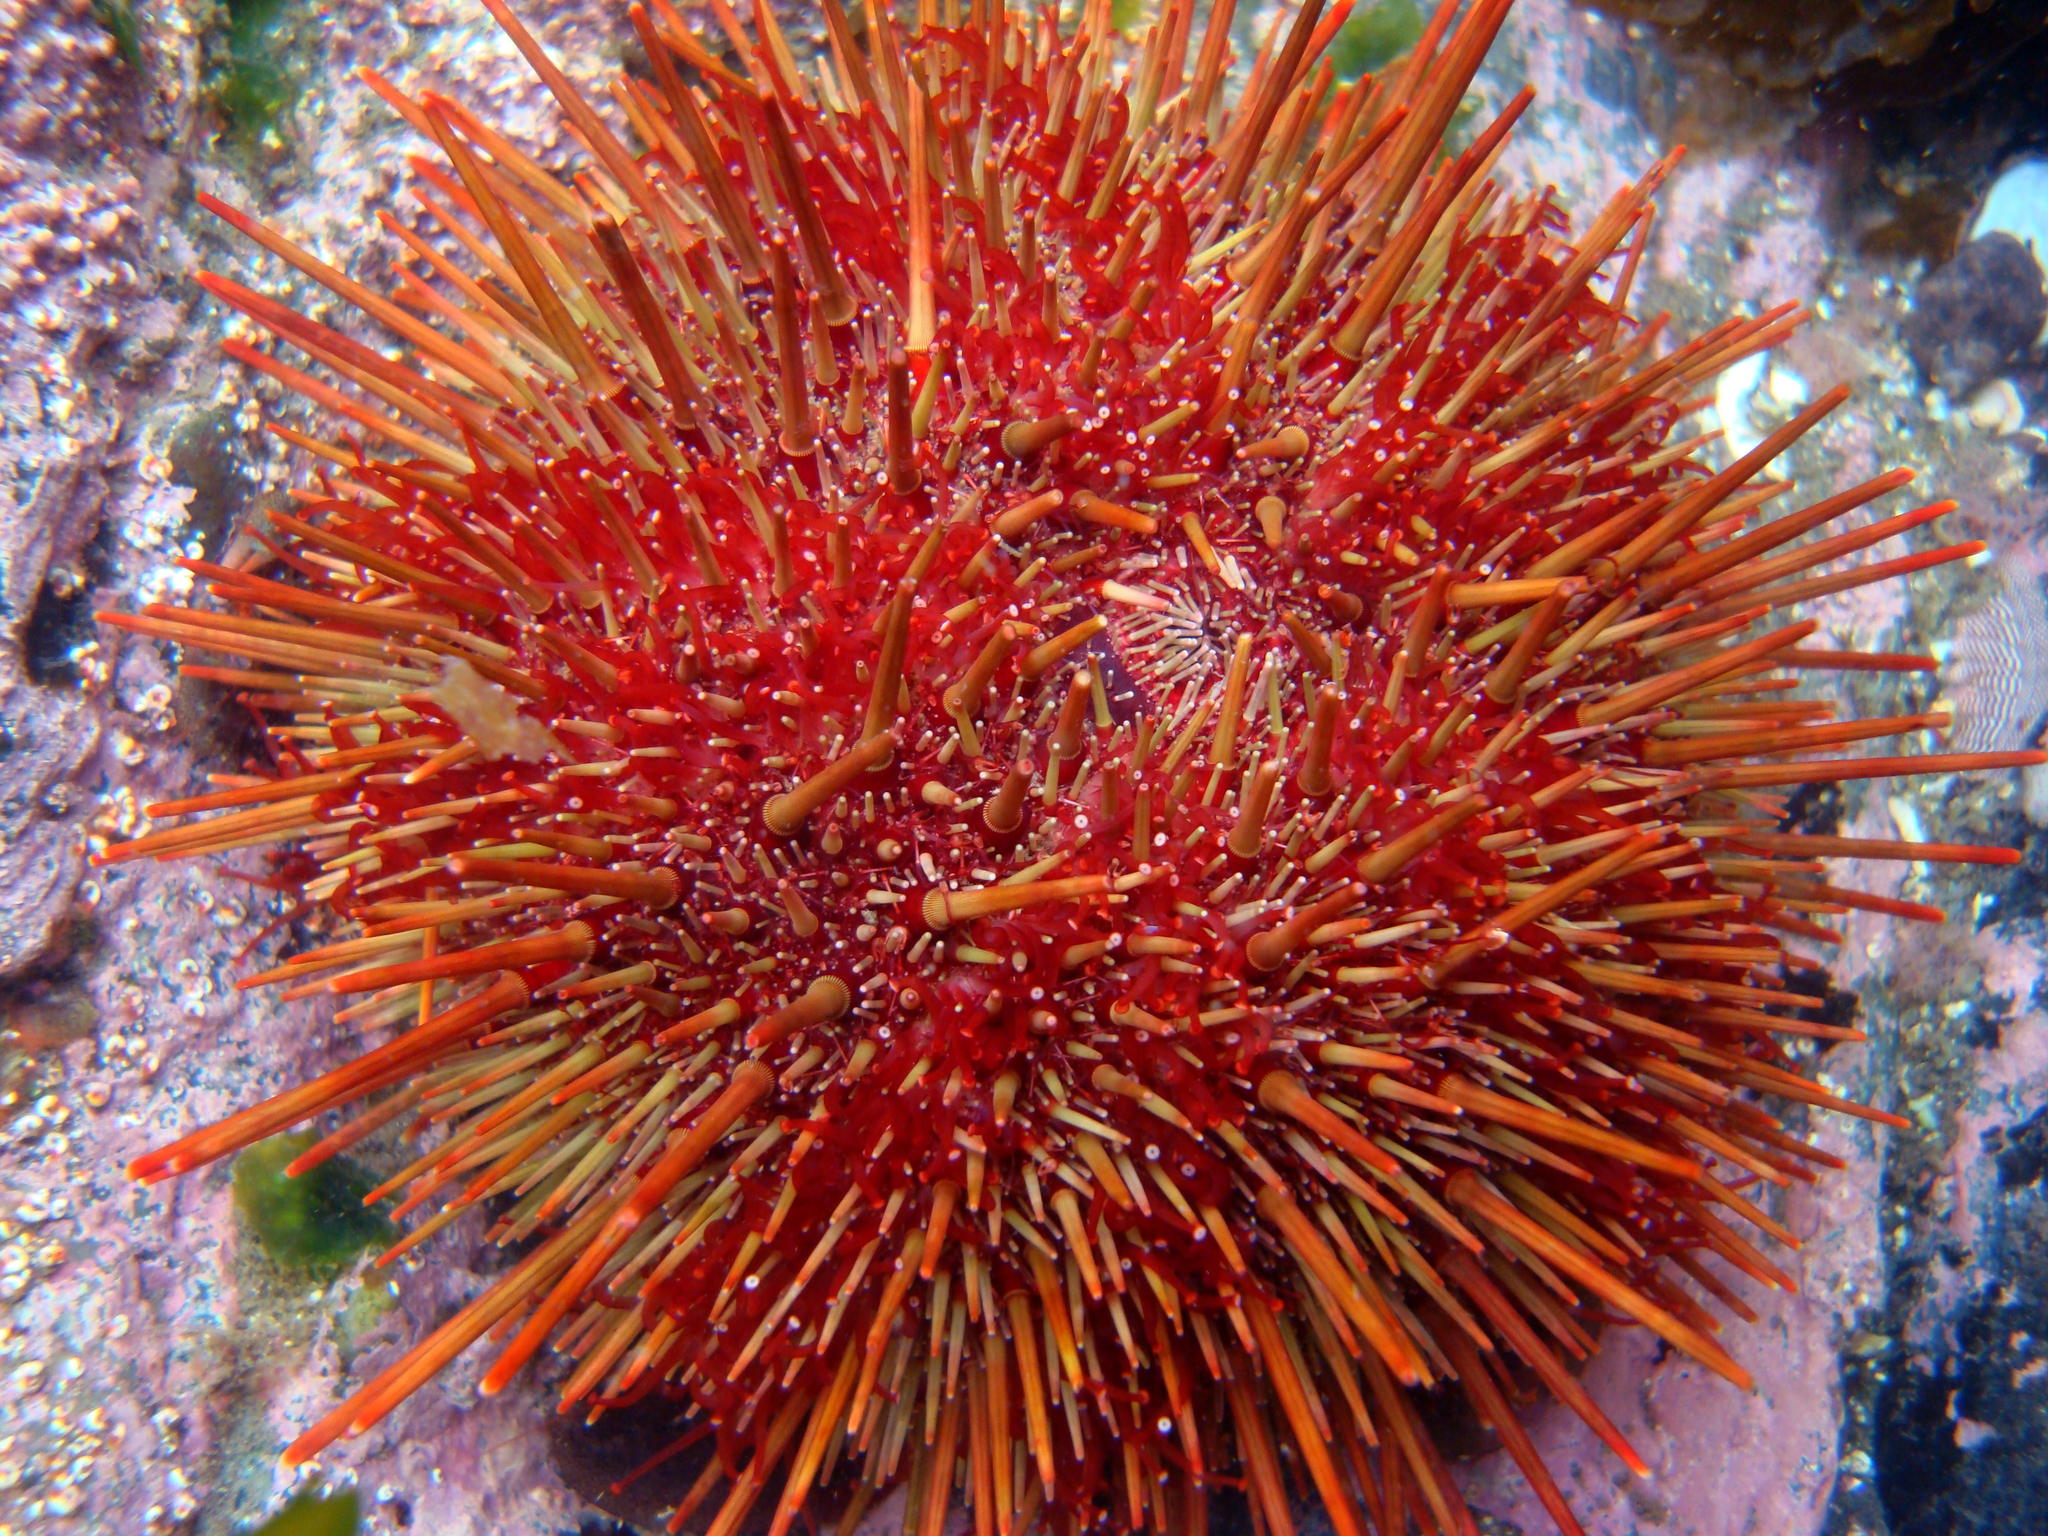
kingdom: Animalia
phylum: Echinodermata
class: Echinoidea
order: Camarodonta
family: Parechinidae
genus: Loxechinus
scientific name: Loxechinus albus
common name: Chilean sea urchin
